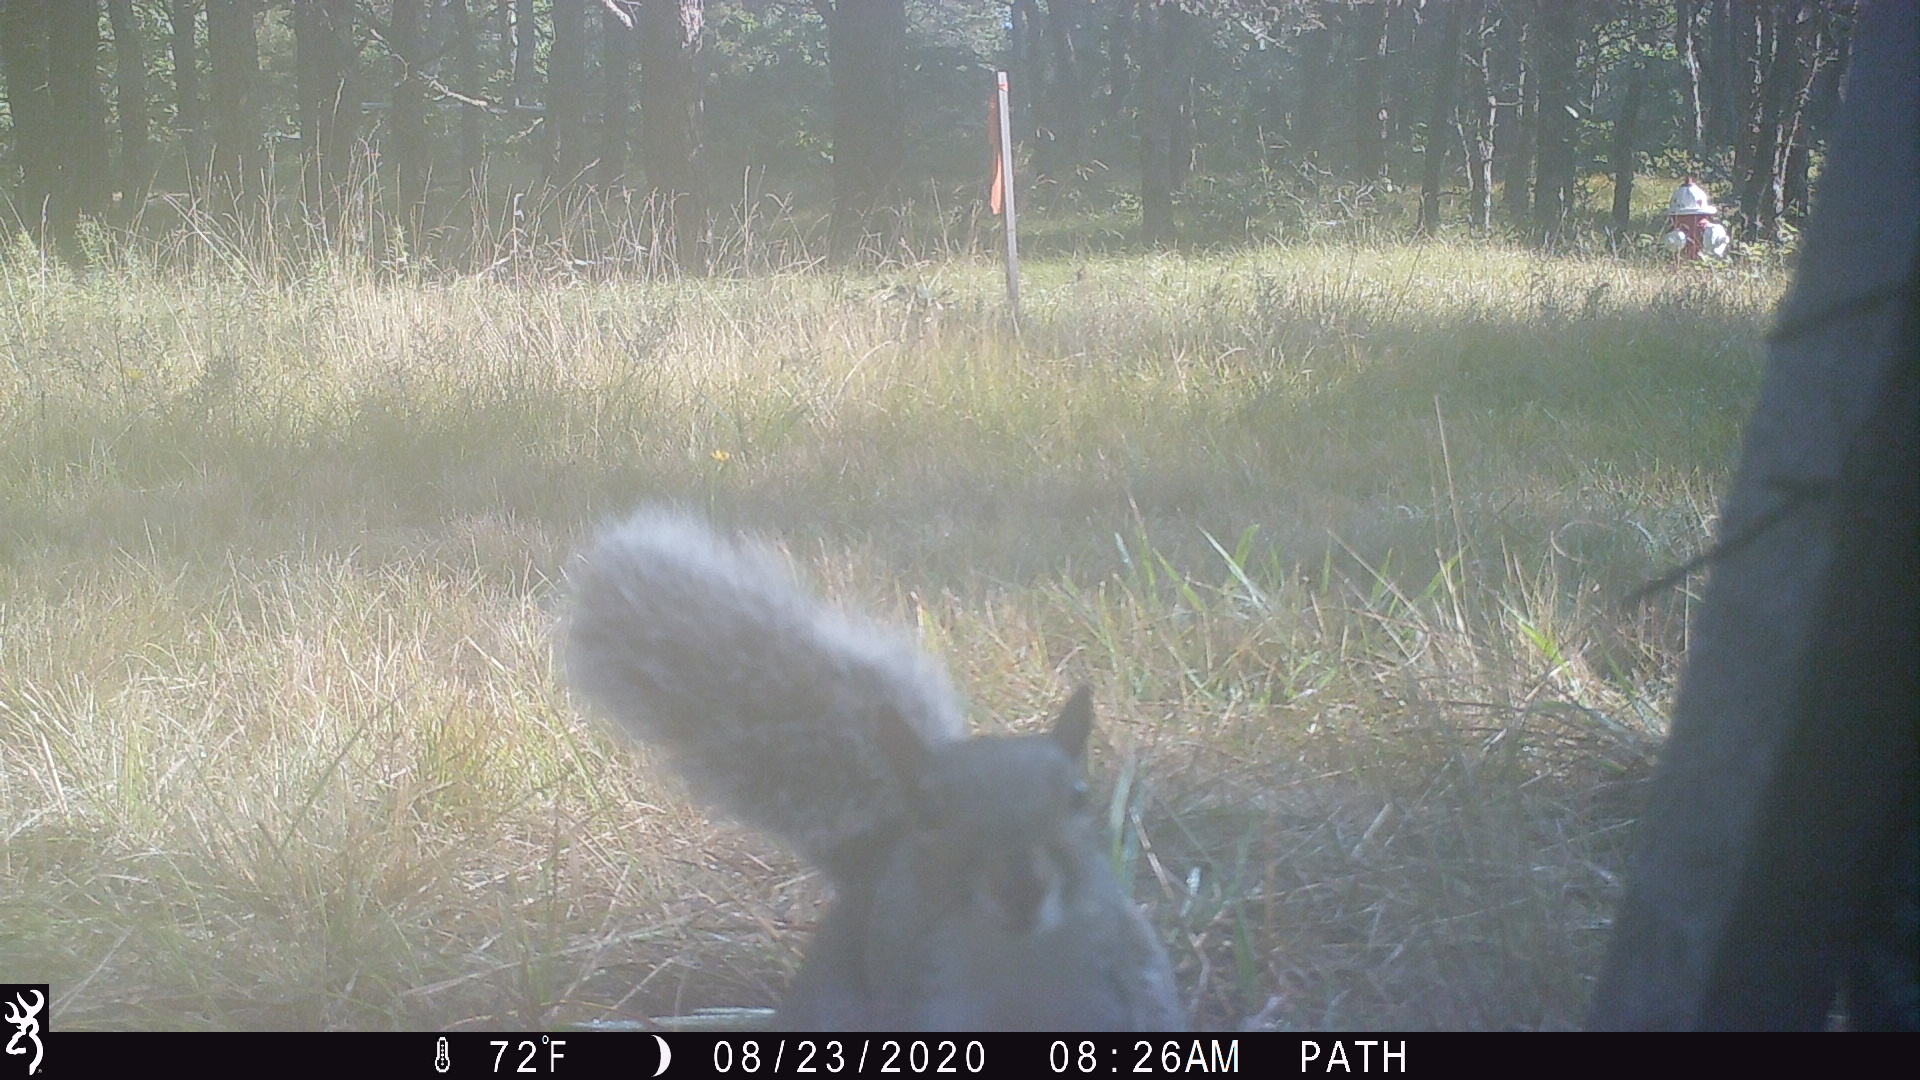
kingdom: Animalia
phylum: Chordata
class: Mammalia
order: Rodentia
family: Sciuridae
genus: Sciurus
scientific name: Sciurus carolinensis
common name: Eastern gray squirrel
